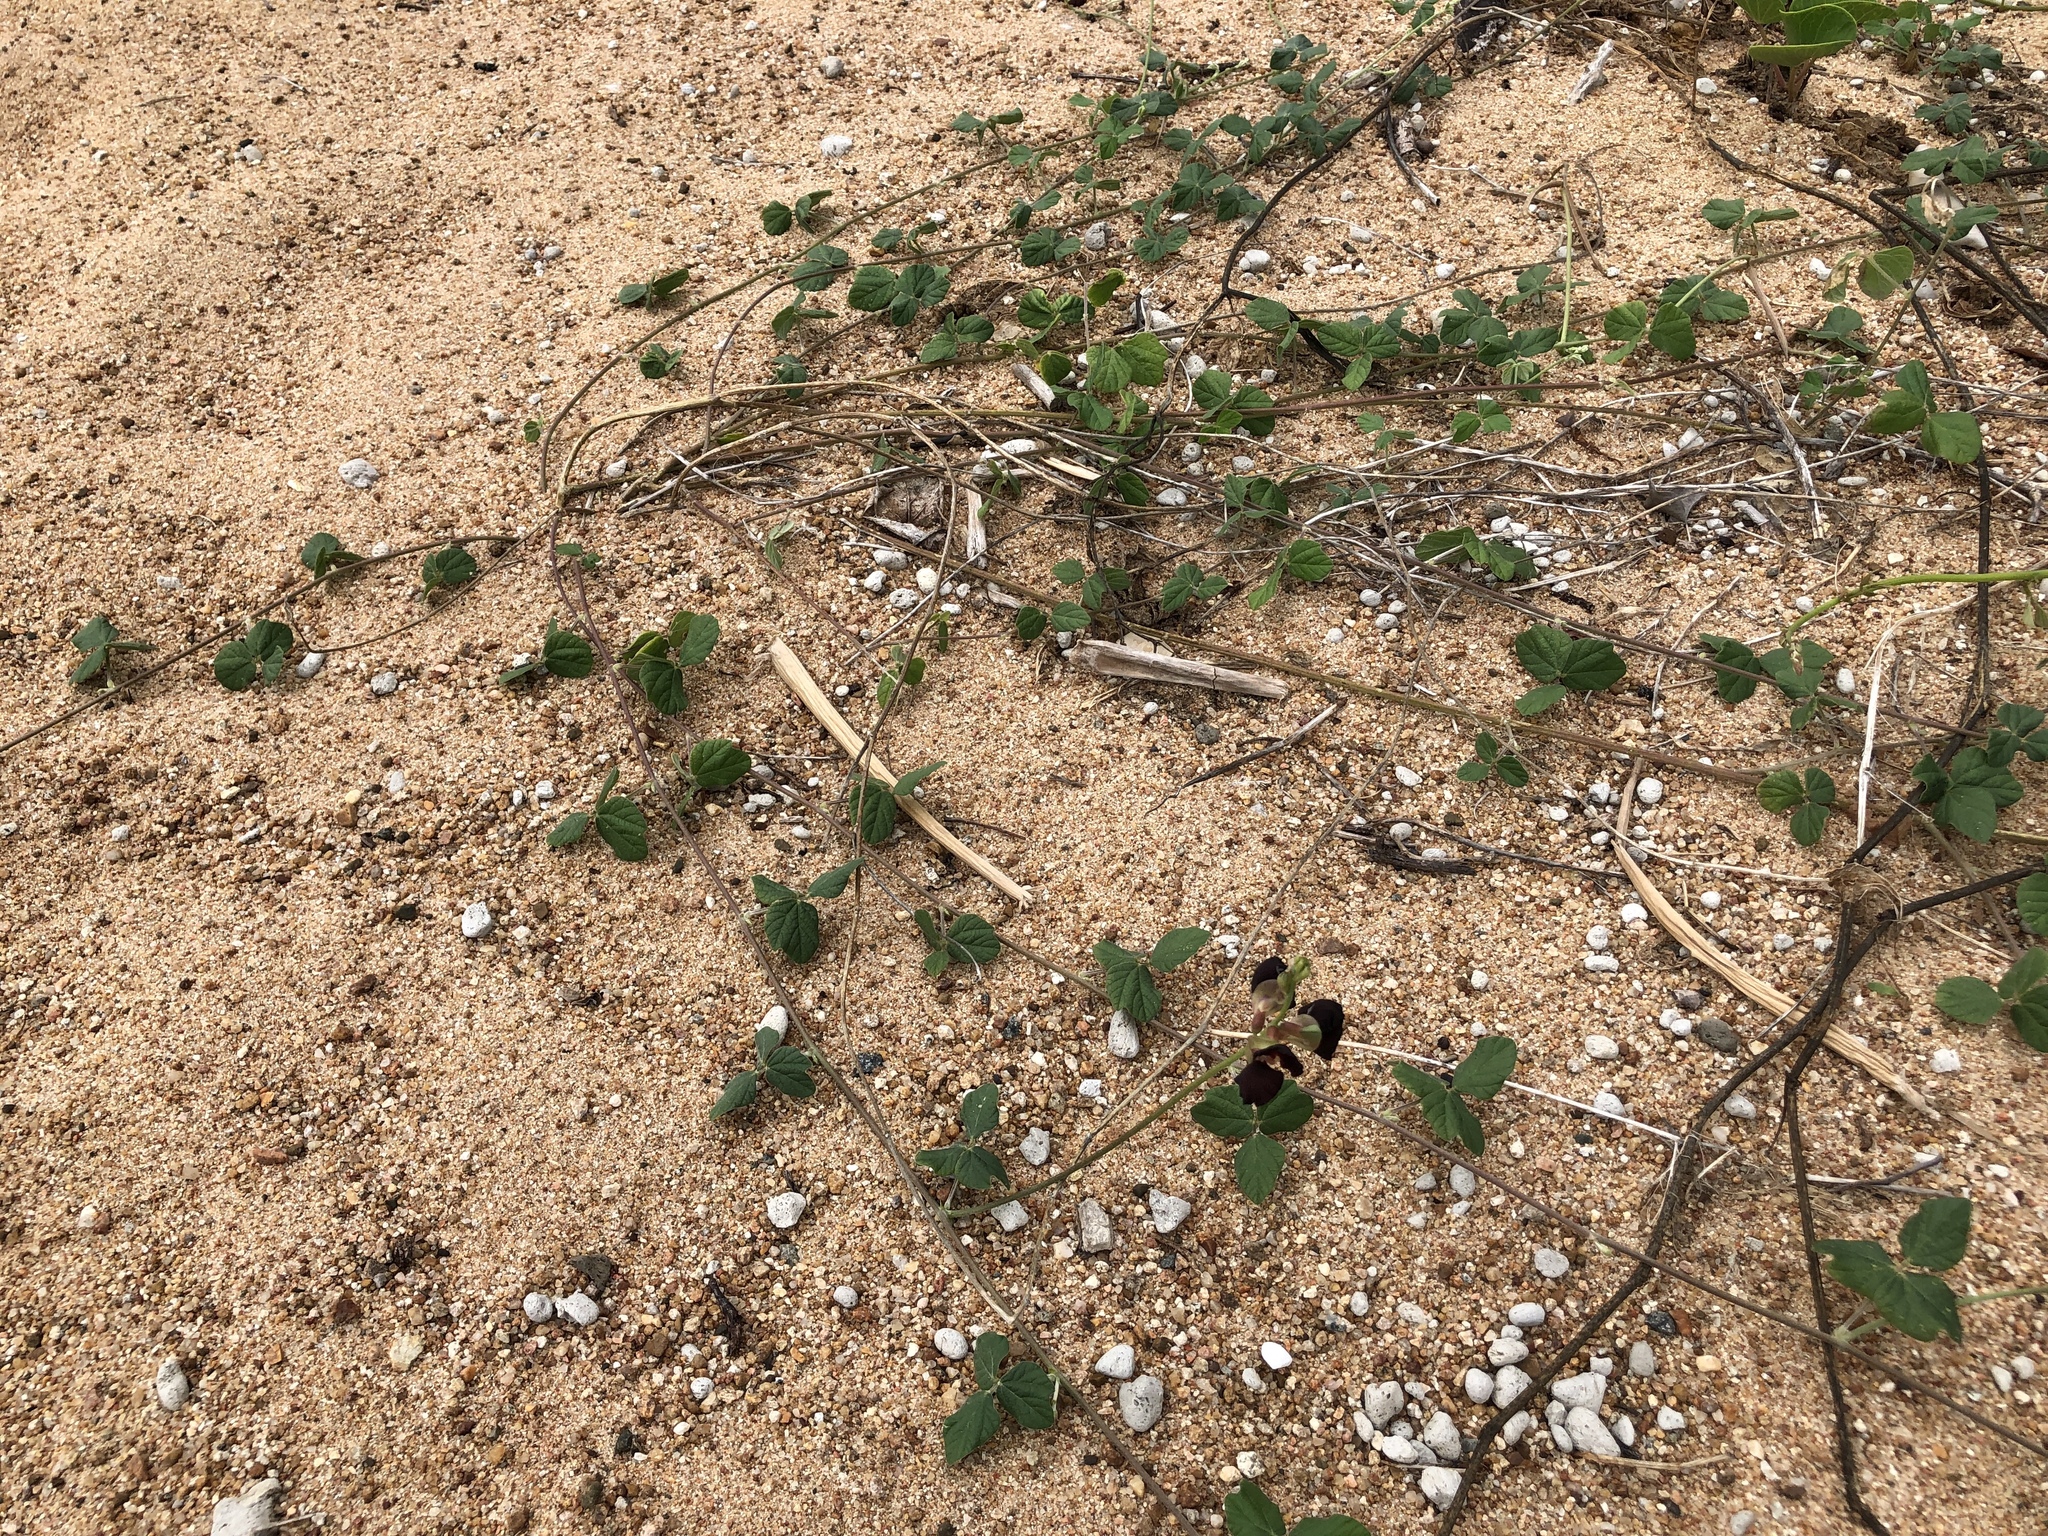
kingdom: Plantae
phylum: Tracheophyta
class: Magnoliopsida
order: Fabales
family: Fabaceae
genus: Macroptilium
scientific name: Macroptilium atropurpureum
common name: Purple bushbean
